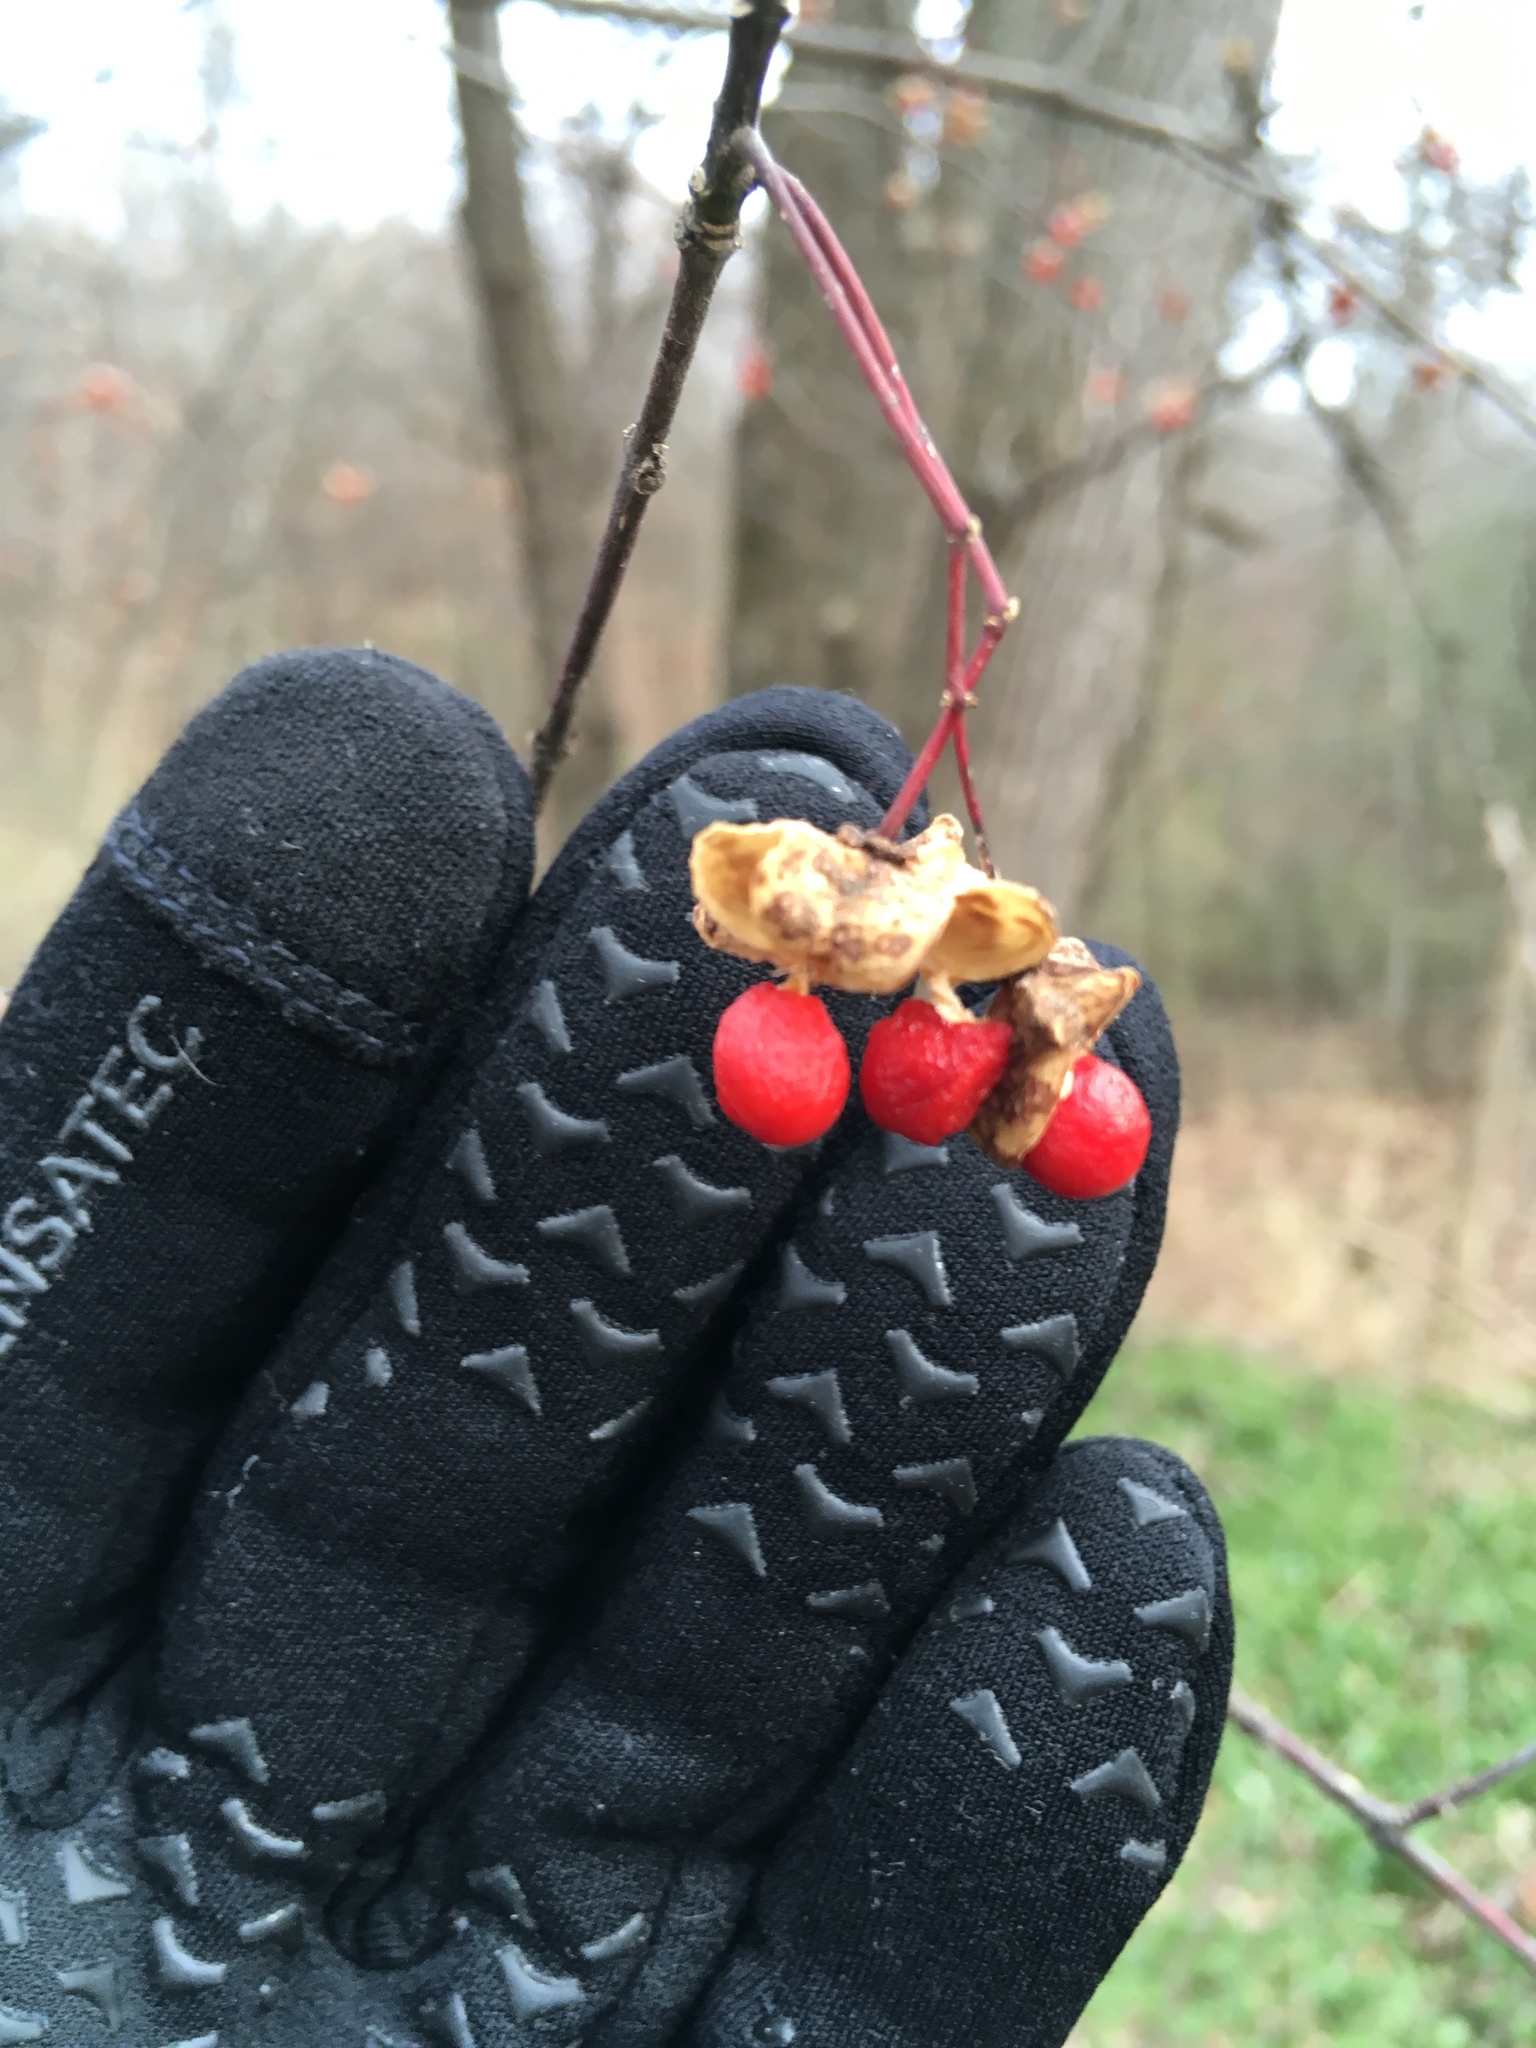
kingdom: Plantae
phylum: Tracheophyta
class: Magnoliopsida
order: Celastrales
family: Celastraceae
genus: Euonymus
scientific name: Euonymus atropurpureus
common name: Eastern wahoo
